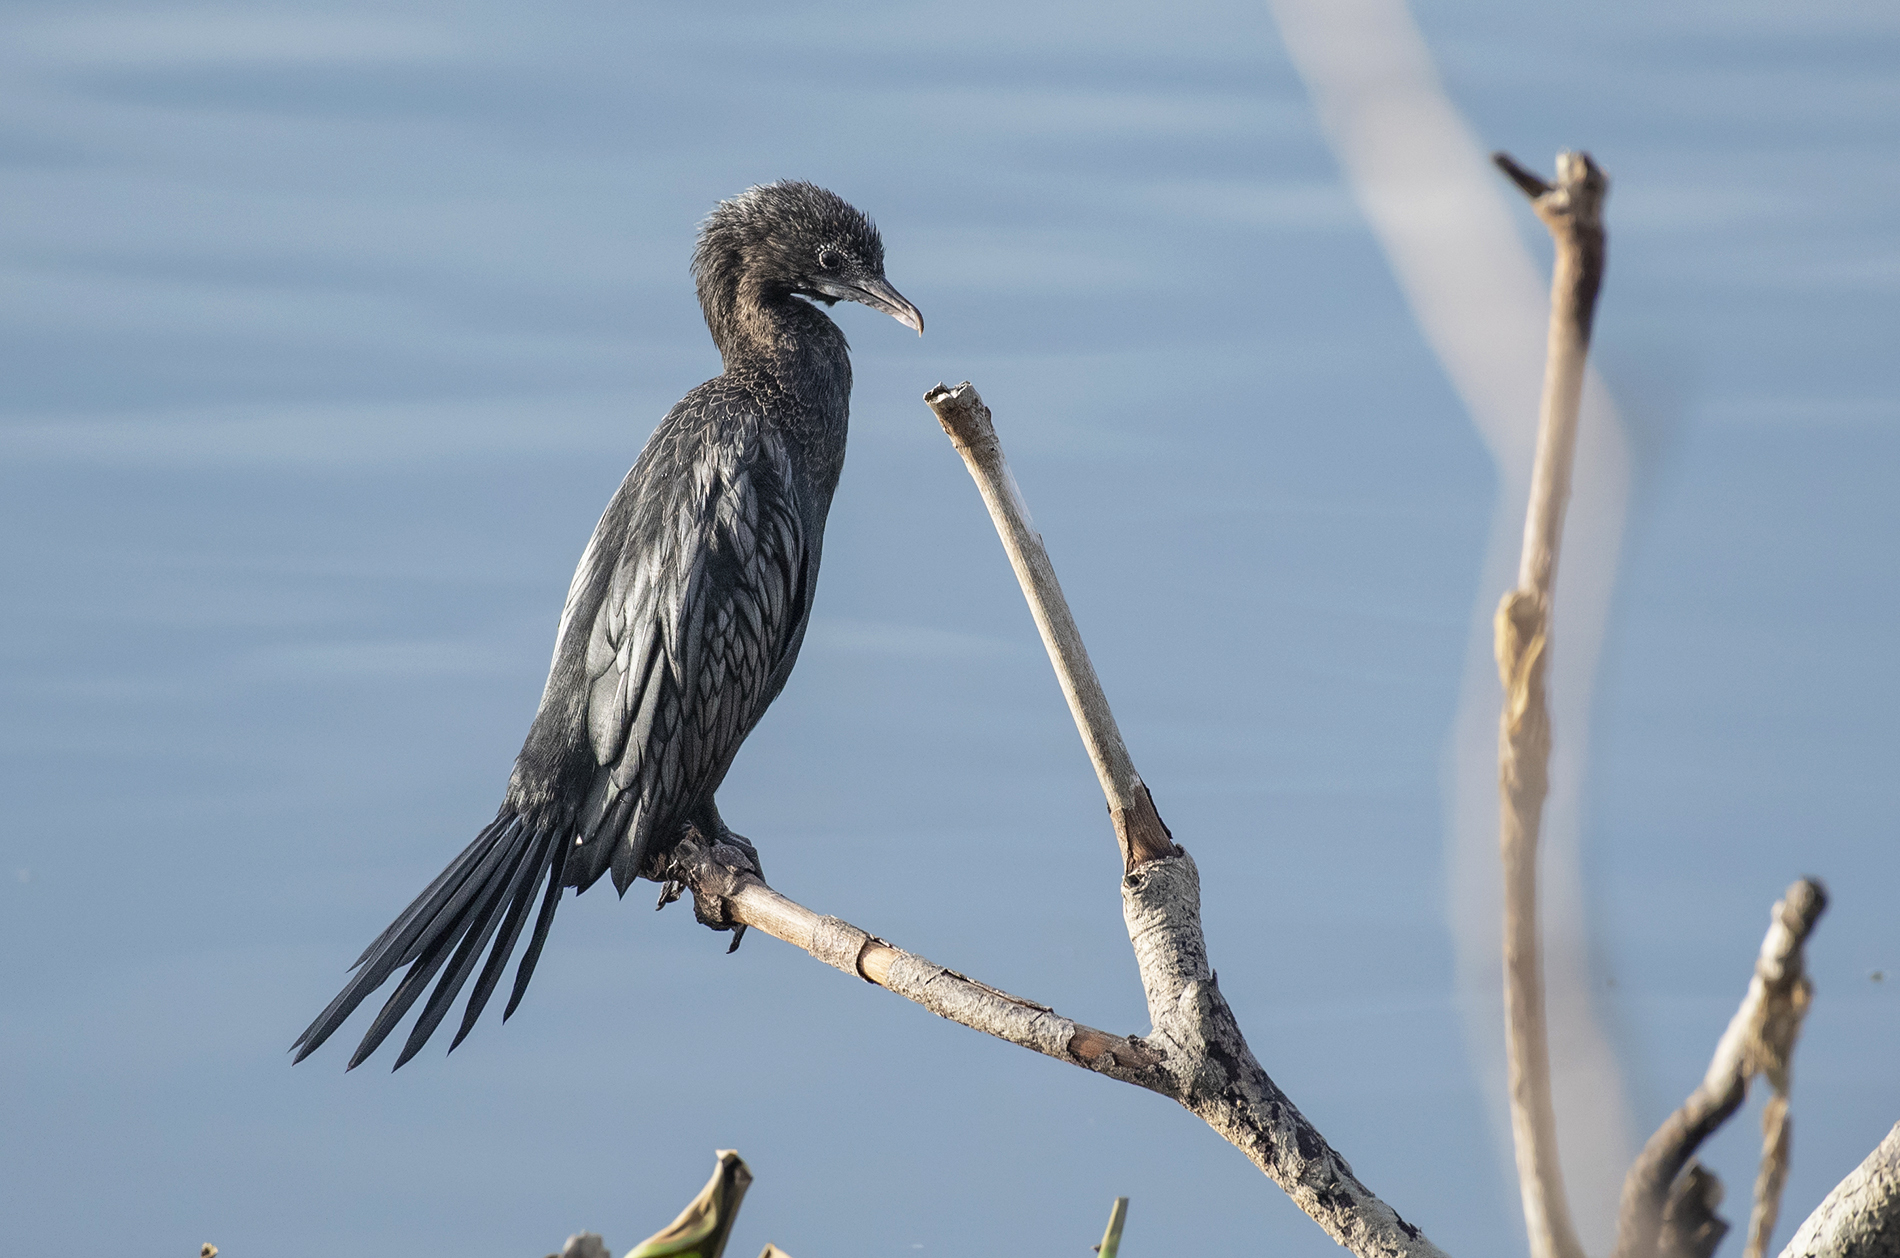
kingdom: Animalia
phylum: Chordata
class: Aves
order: Suliformes
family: Phalacrocoracidae
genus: Microcarbo
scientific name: Microcarbo niger
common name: Little cormorant
